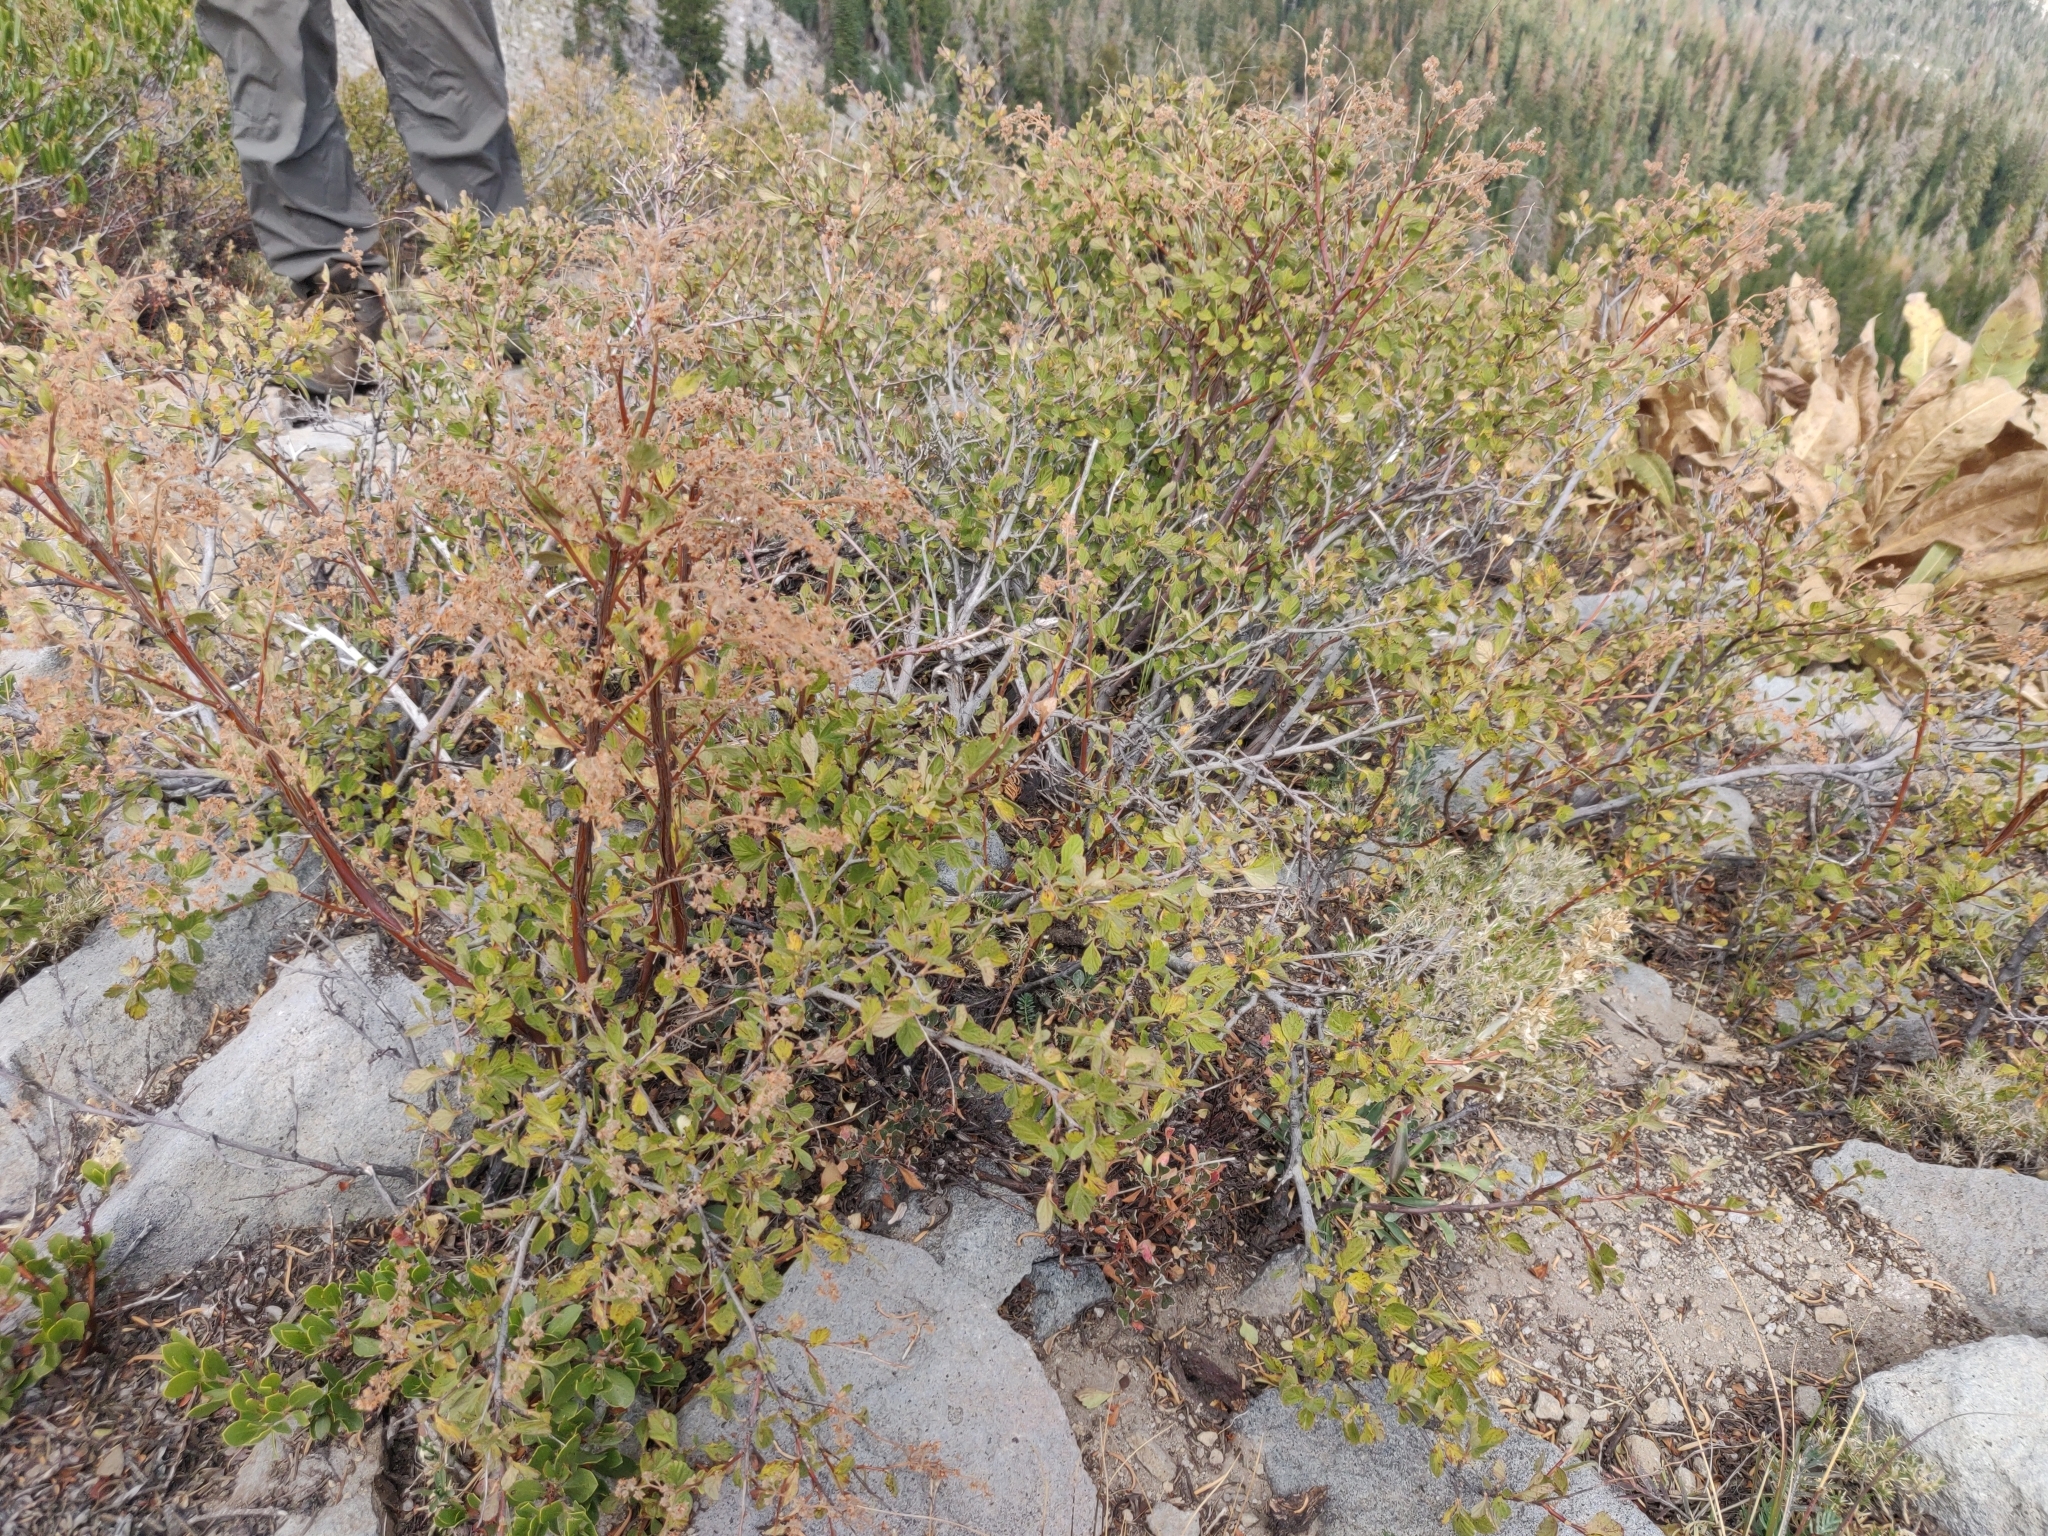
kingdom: Plantae
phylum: Tracheophyta
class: Magnoliopsida
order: Rosales
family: Rosaceae
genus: Holodiscus
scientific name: Holodiscus discolor
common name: Oceanspray
